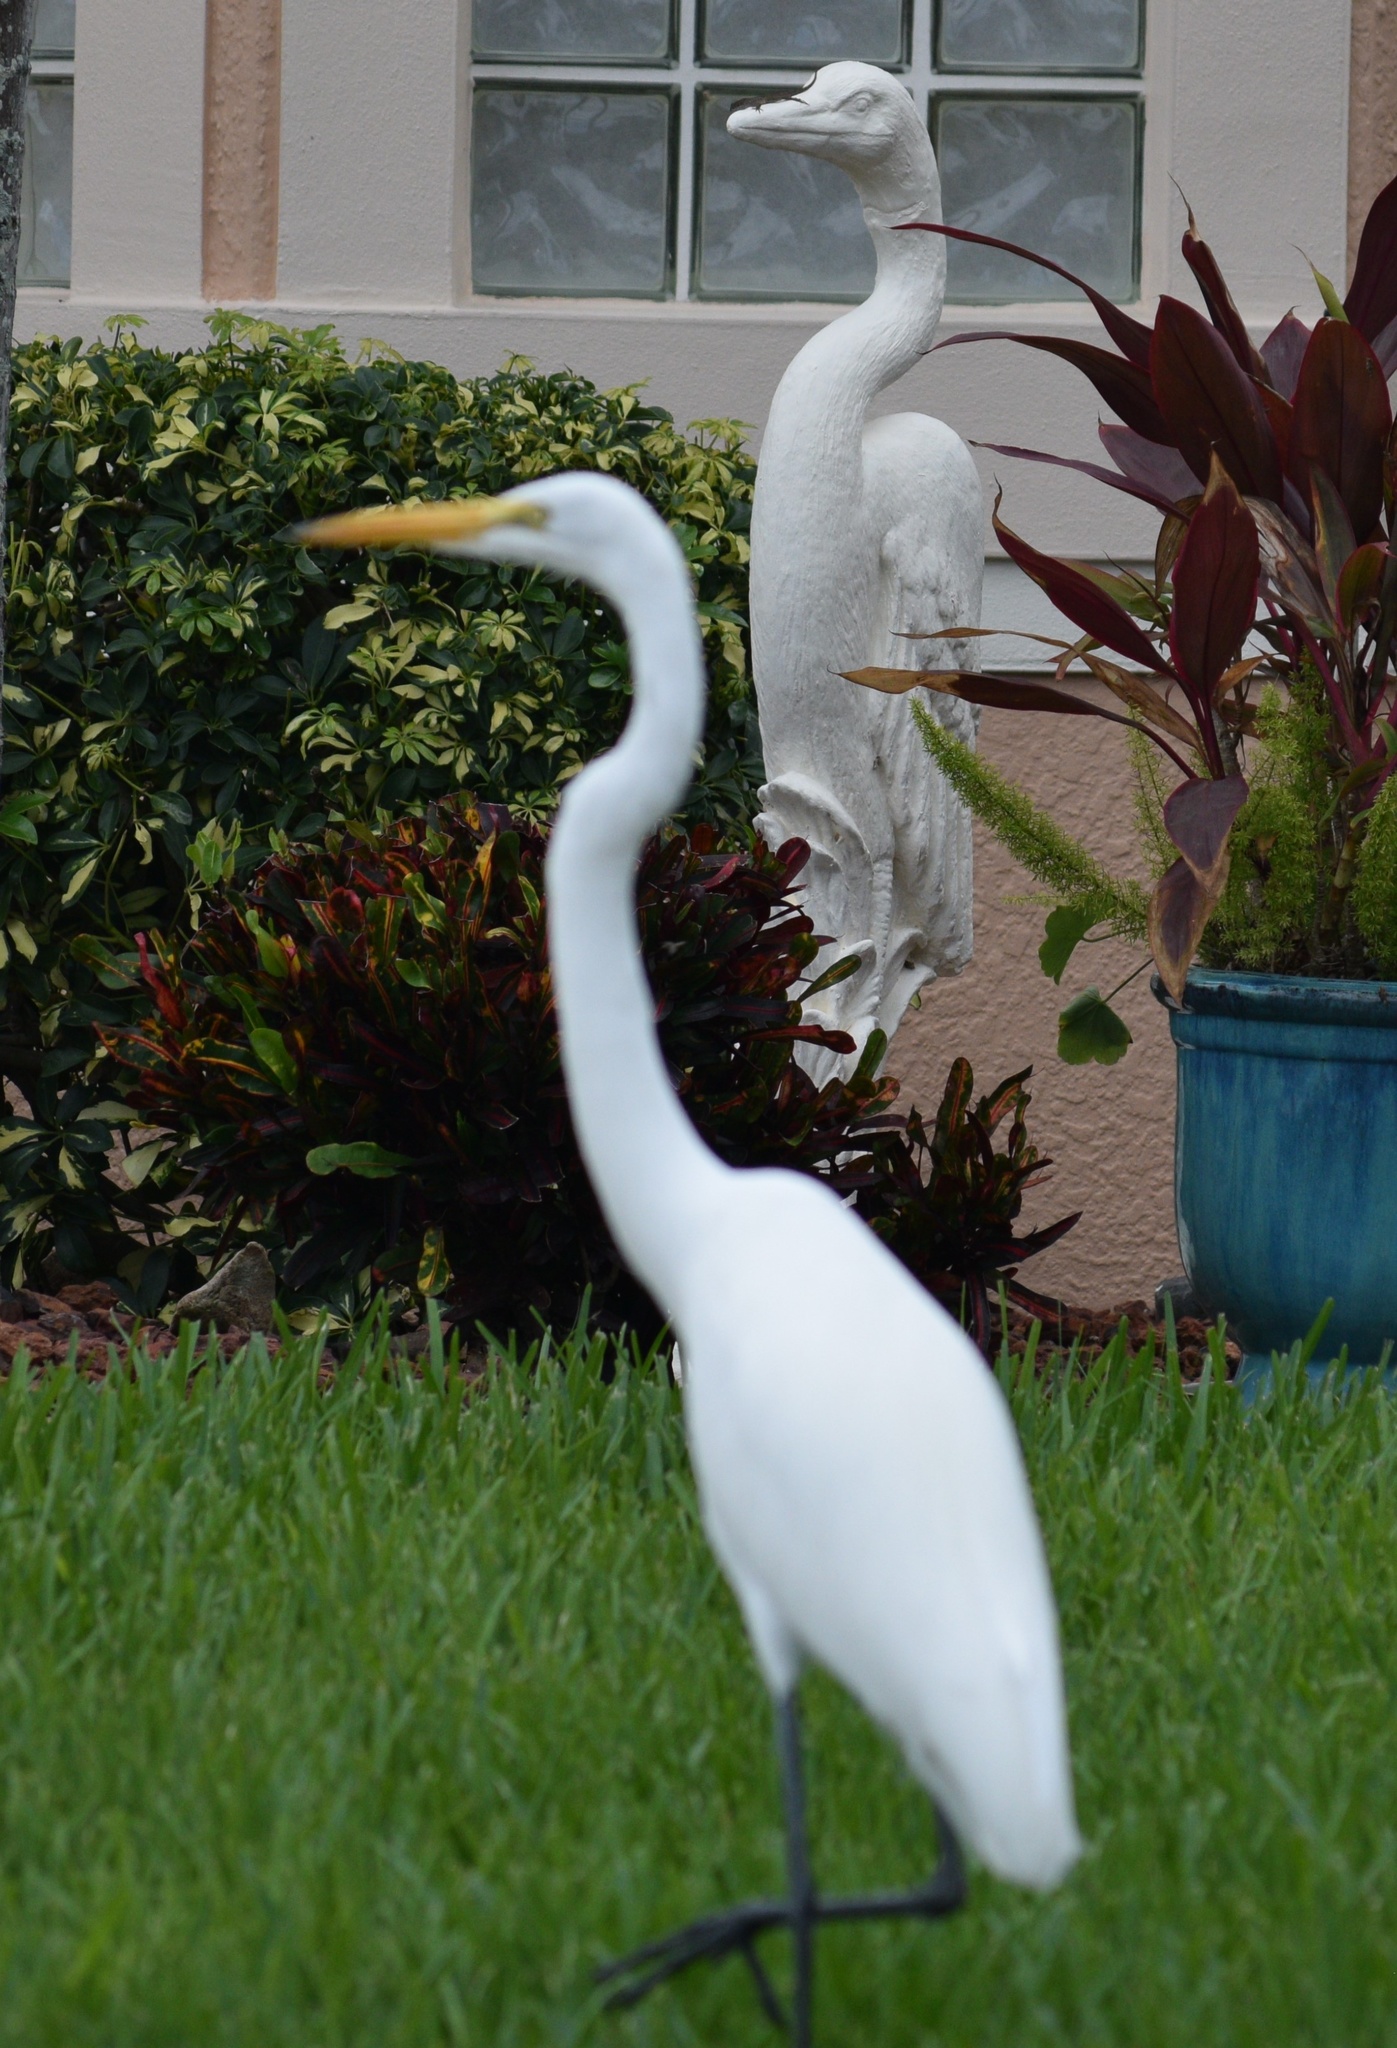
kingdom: Animalia
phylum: Chordata
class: Aves
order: Pelecaniformes
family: Ardeidae
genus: Ardea
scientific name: Ardea alba
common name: Great egret
